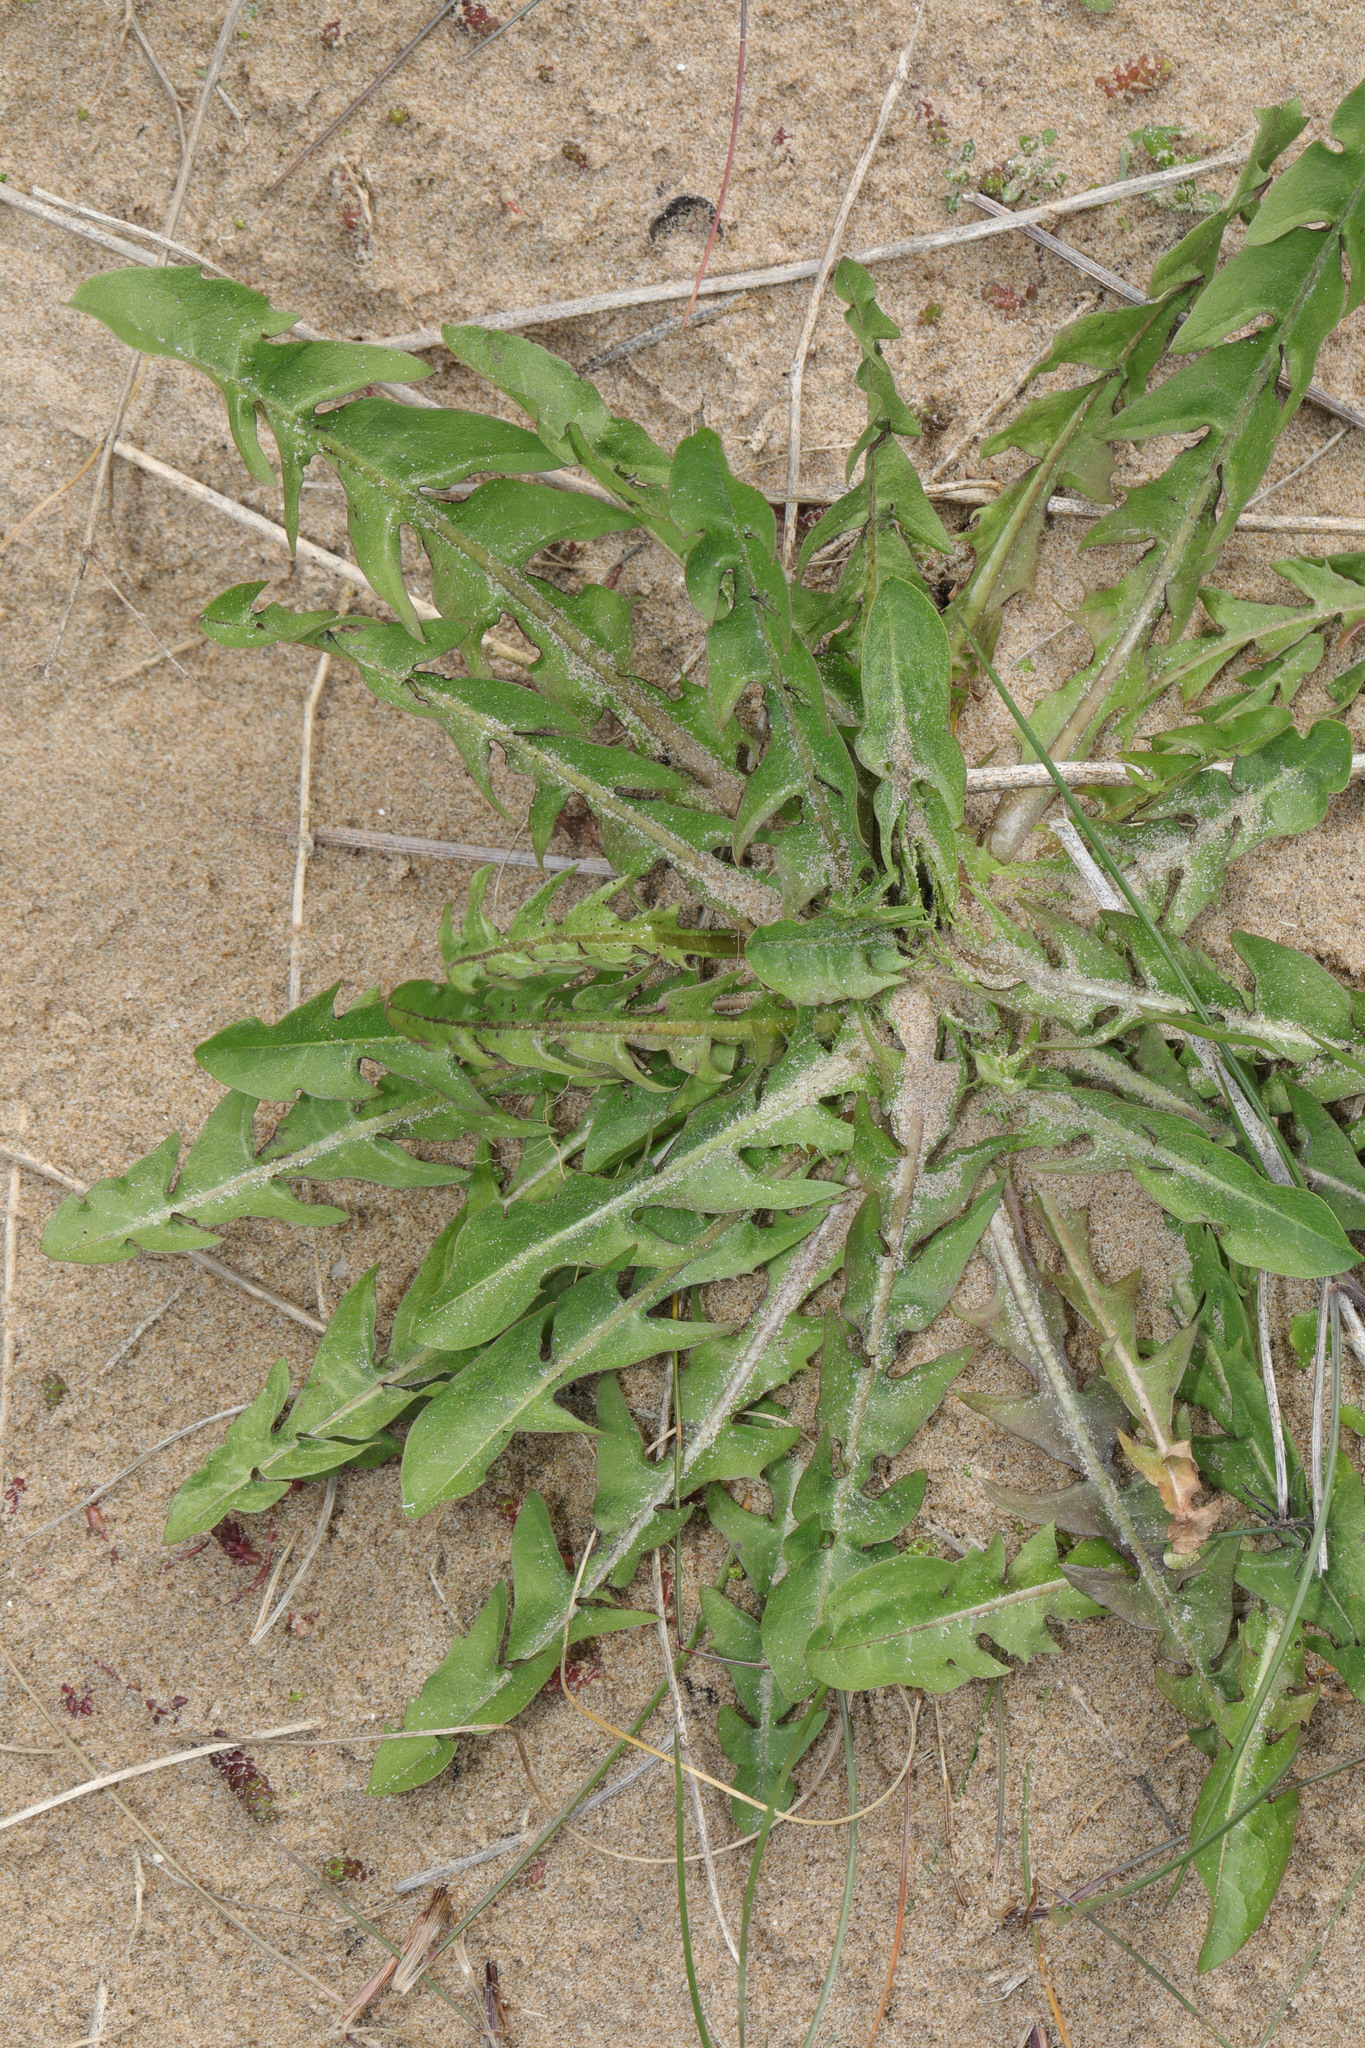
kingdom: Plantae
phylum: Tracheophyta
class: Magnoliopsida
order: Asterales
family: Asteraceae
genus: Taraxacum
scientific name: Taraxacum officinale
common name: Common dandelion
